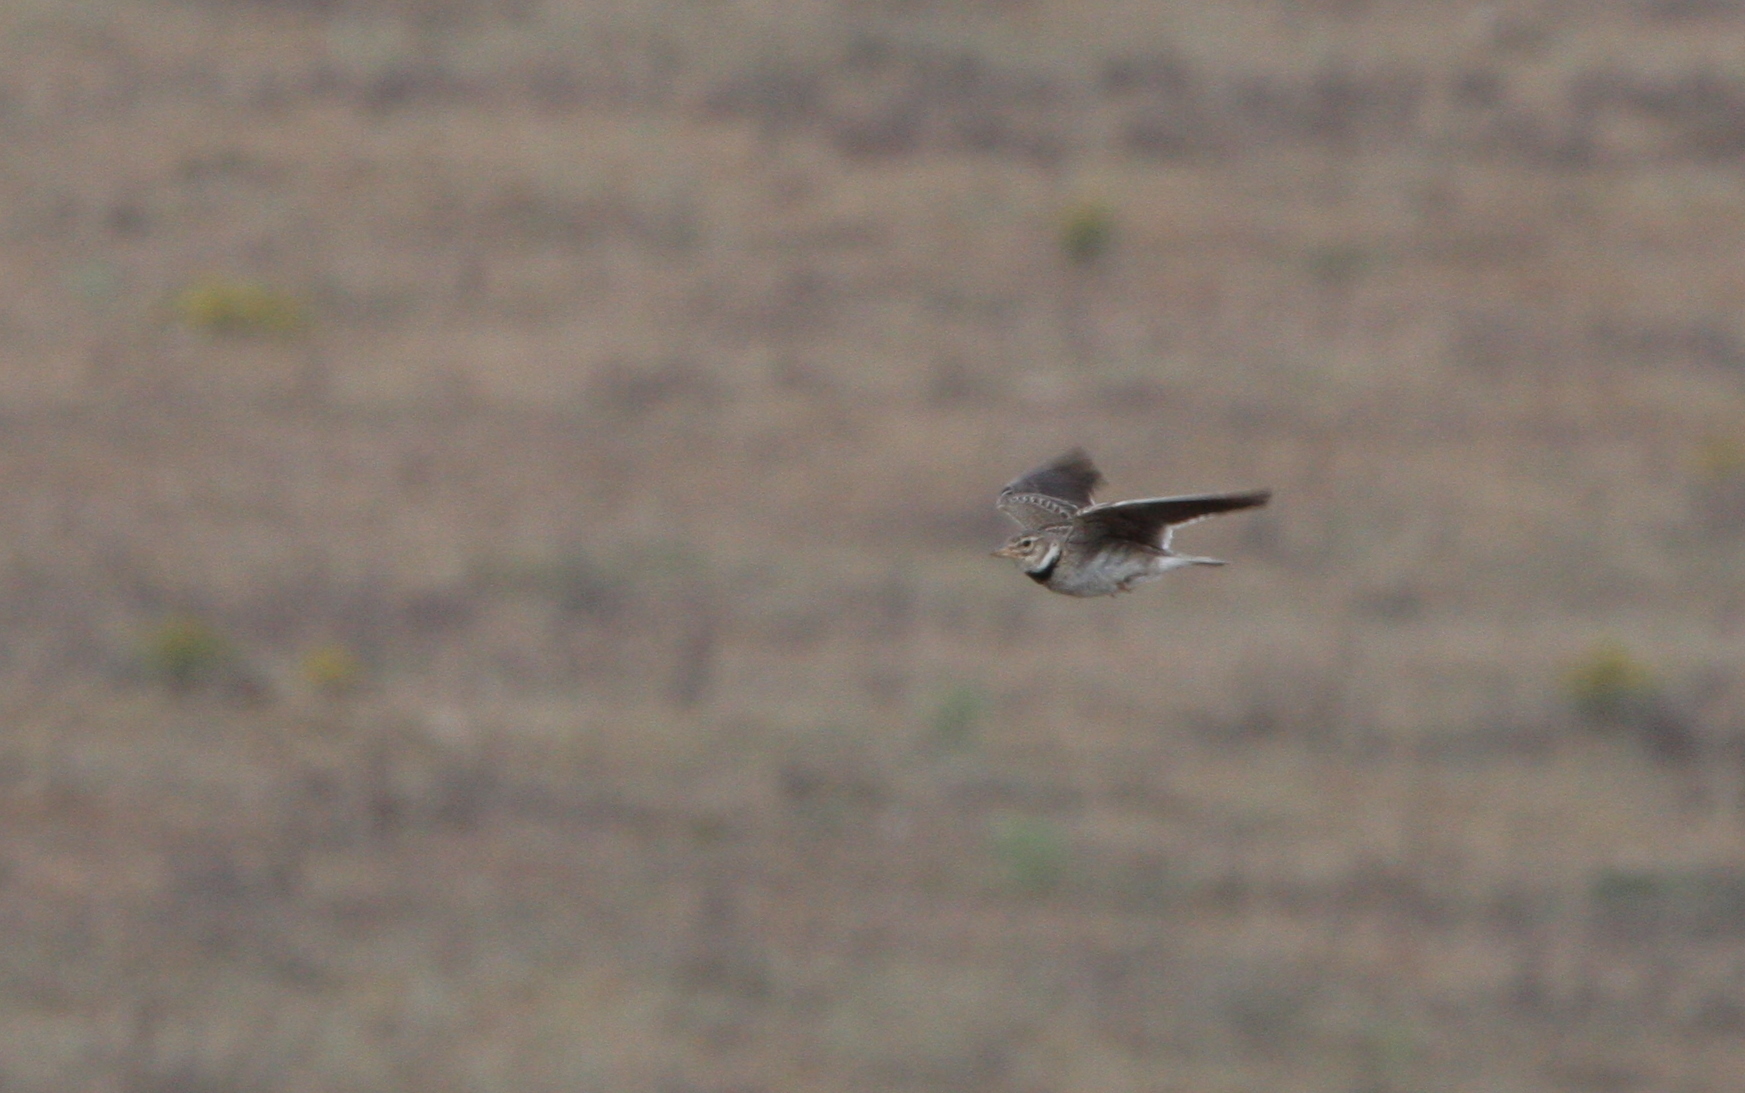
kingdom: Animalia
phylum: Chordata
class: Aves
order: Passeriformes
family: Alaudidae
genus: Melanocorypha
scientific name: Melanocorypha calandra
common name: Calandra lark
